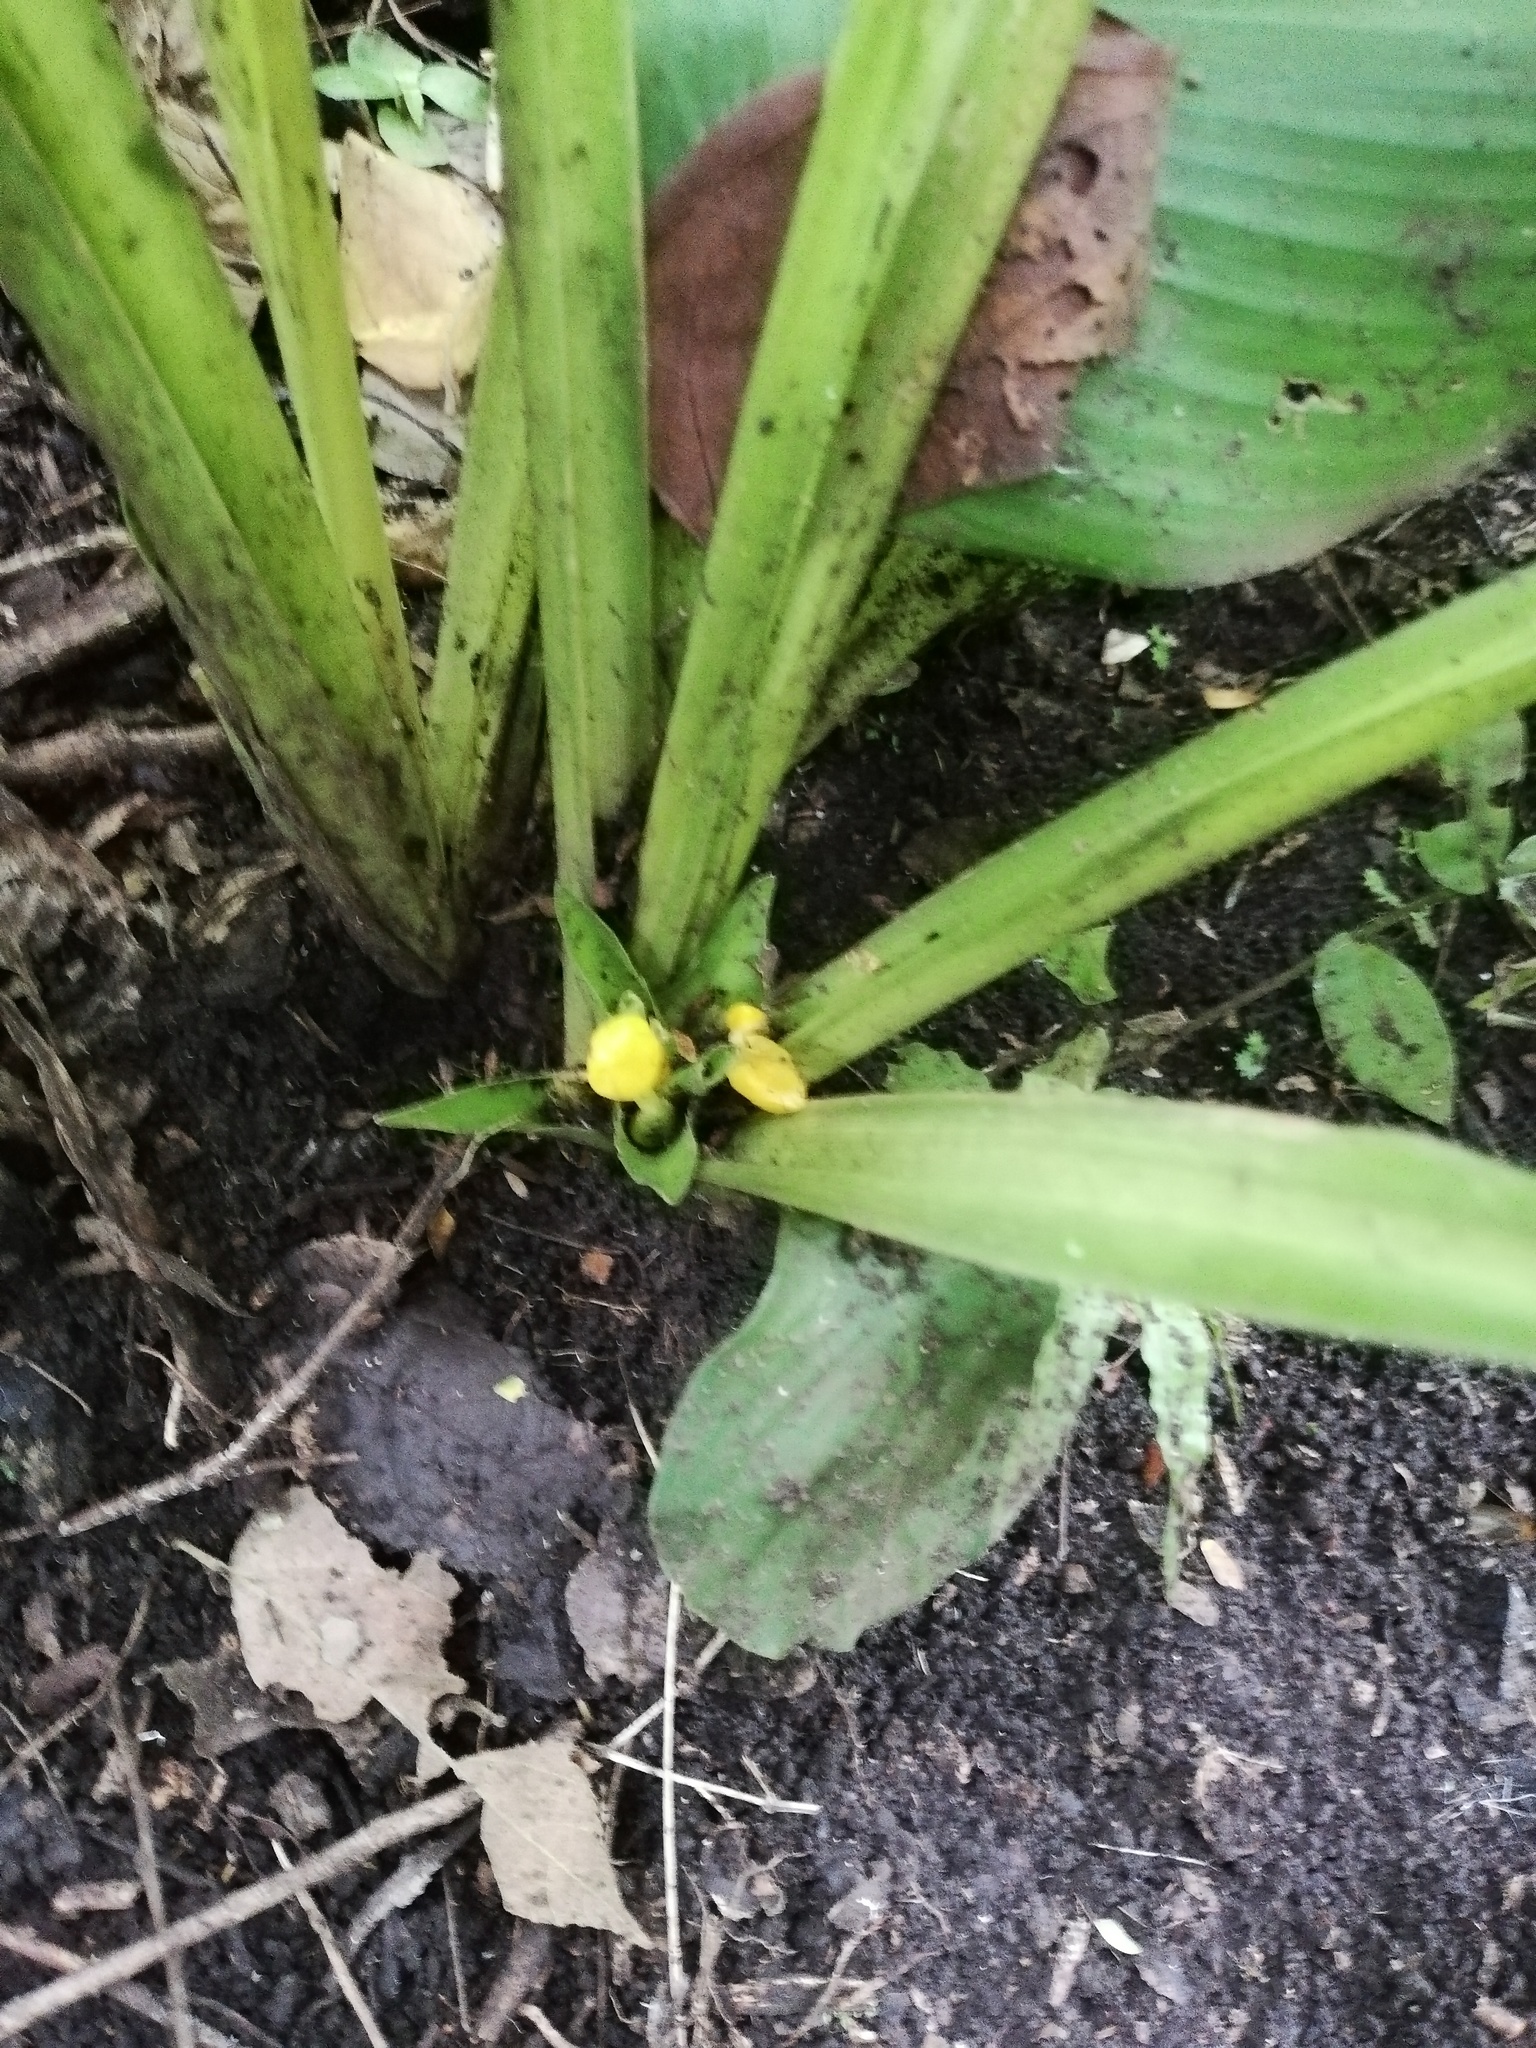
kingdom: Plantae
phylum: Tracheophyta
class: Liliopsida
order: Zingiberales
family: Marantaceae
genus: Goeppertia
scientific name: Goeppertia panamensis
